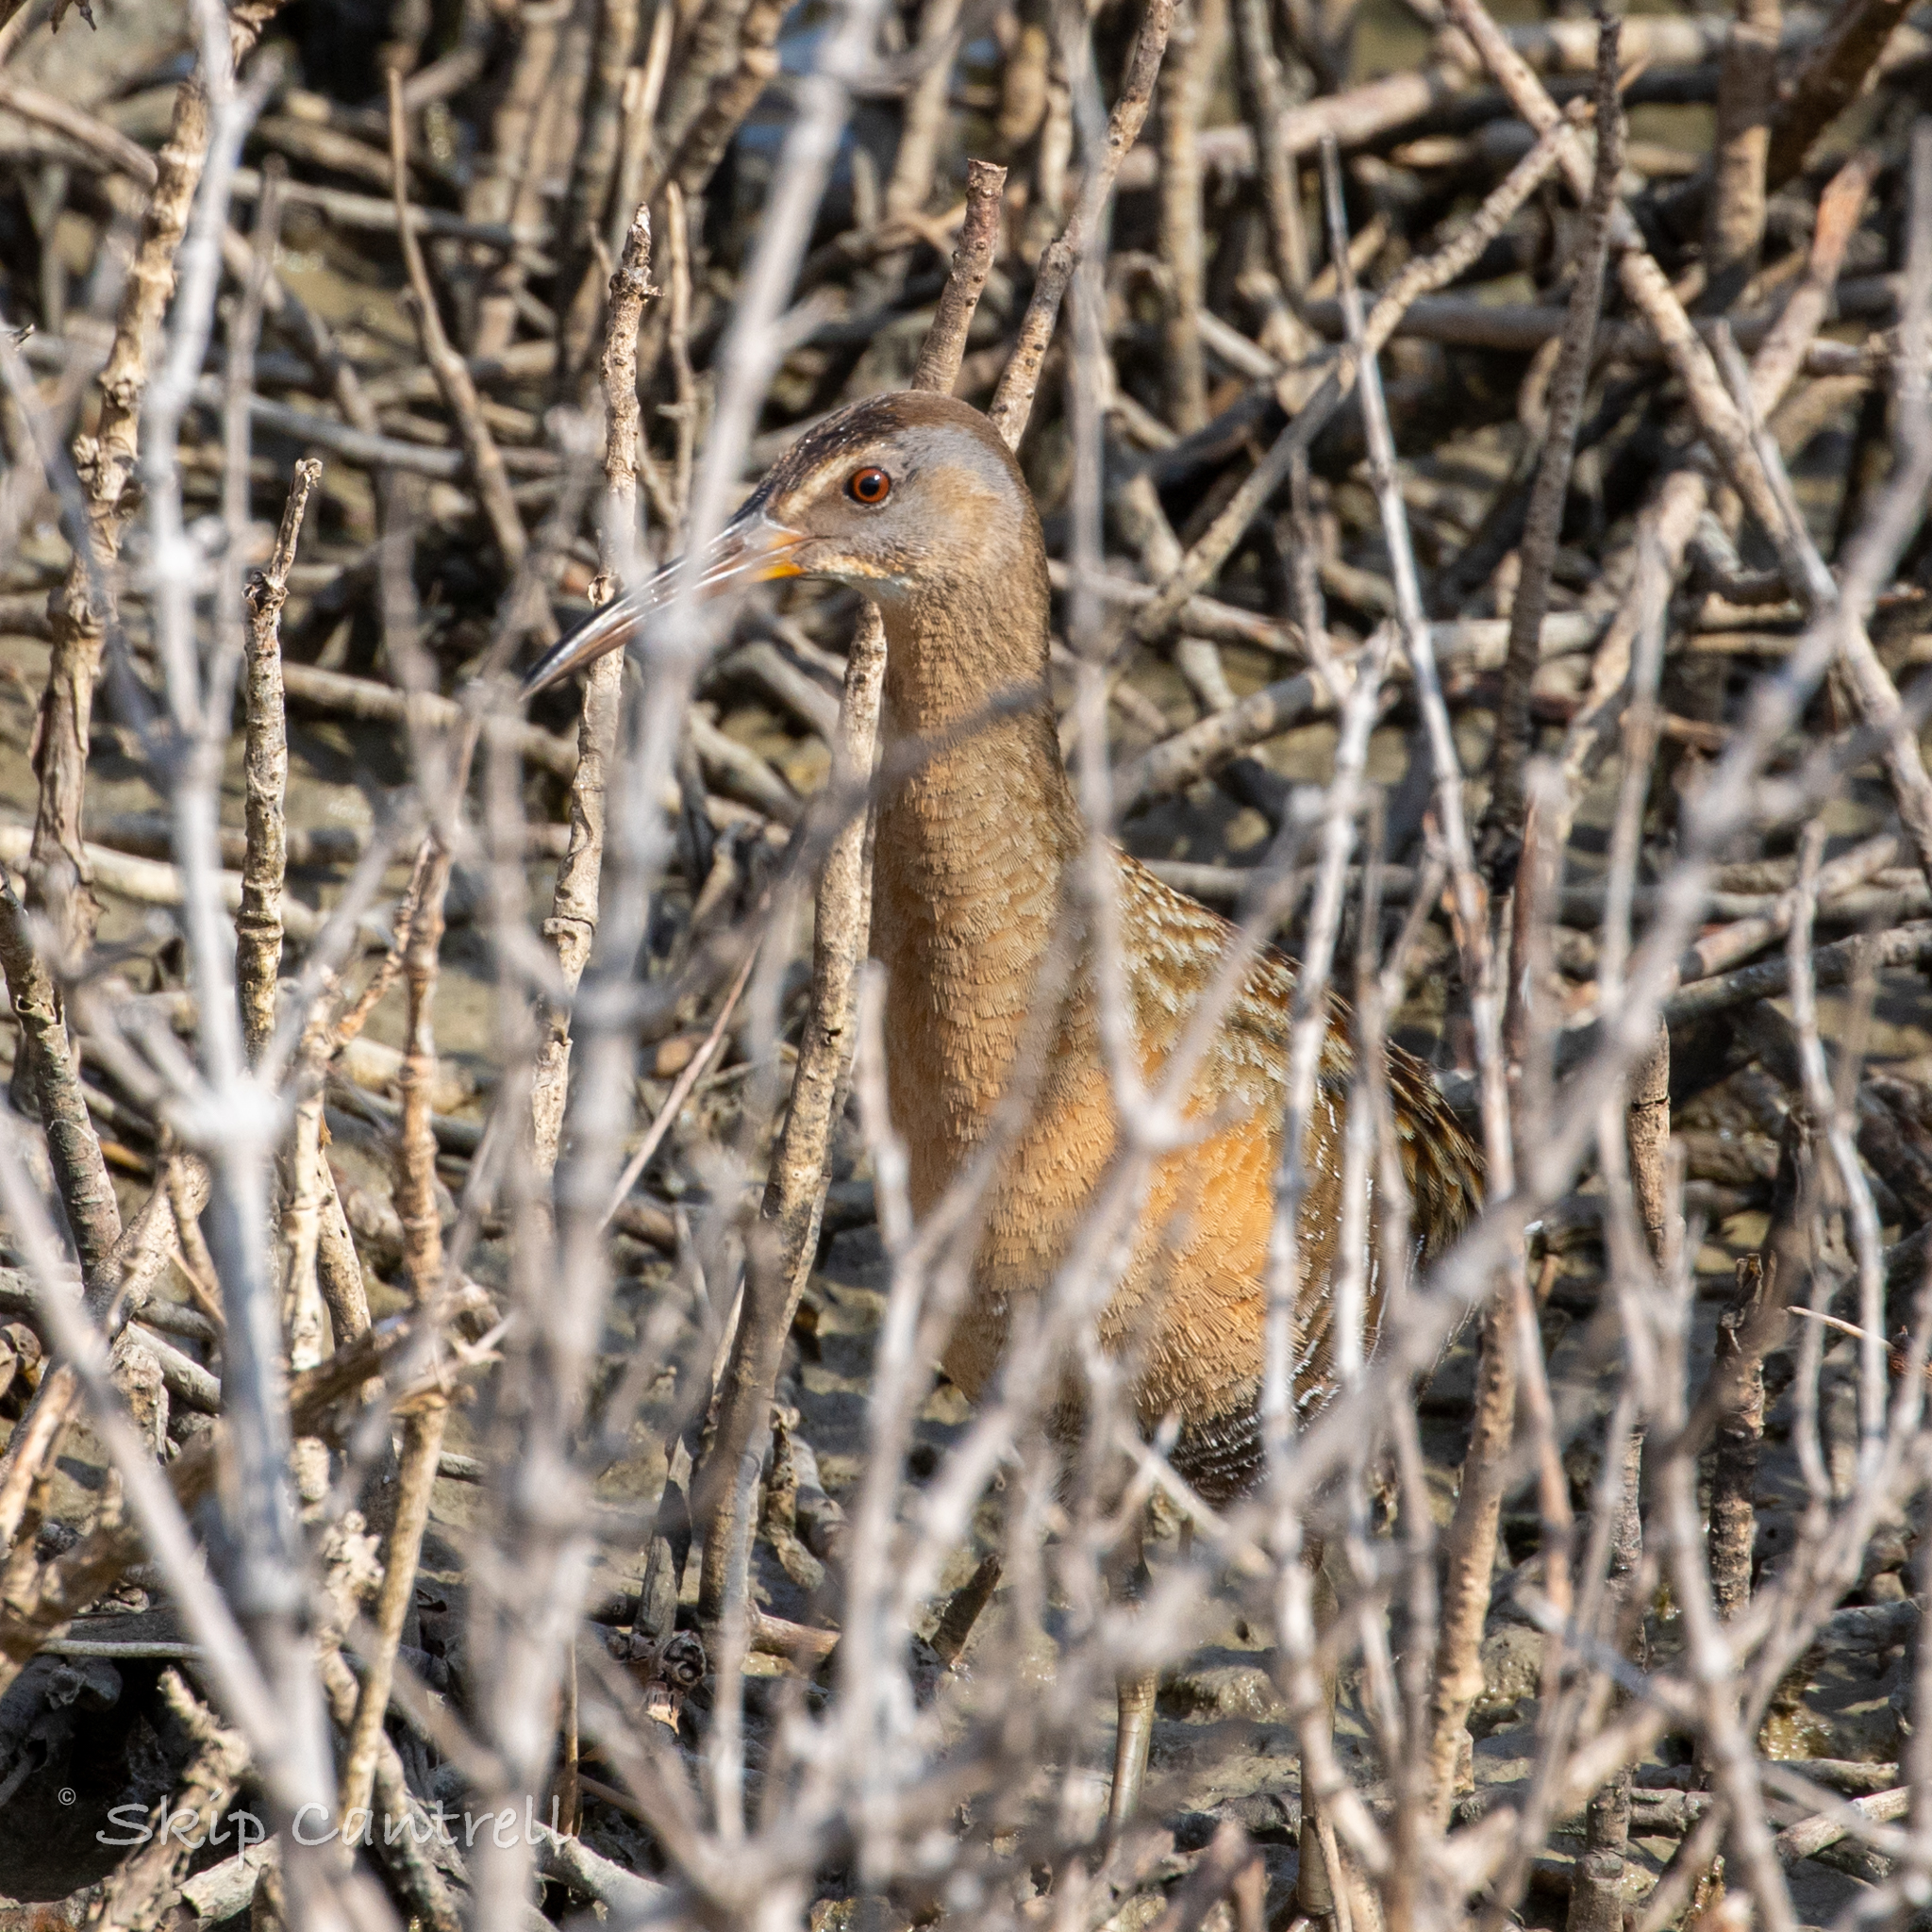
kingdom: Animalia
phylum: Chordata
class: Aves
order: Gruiformes
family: Rallidae
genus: Rallus
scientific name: Rallus crepitans
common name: Clapper rail
